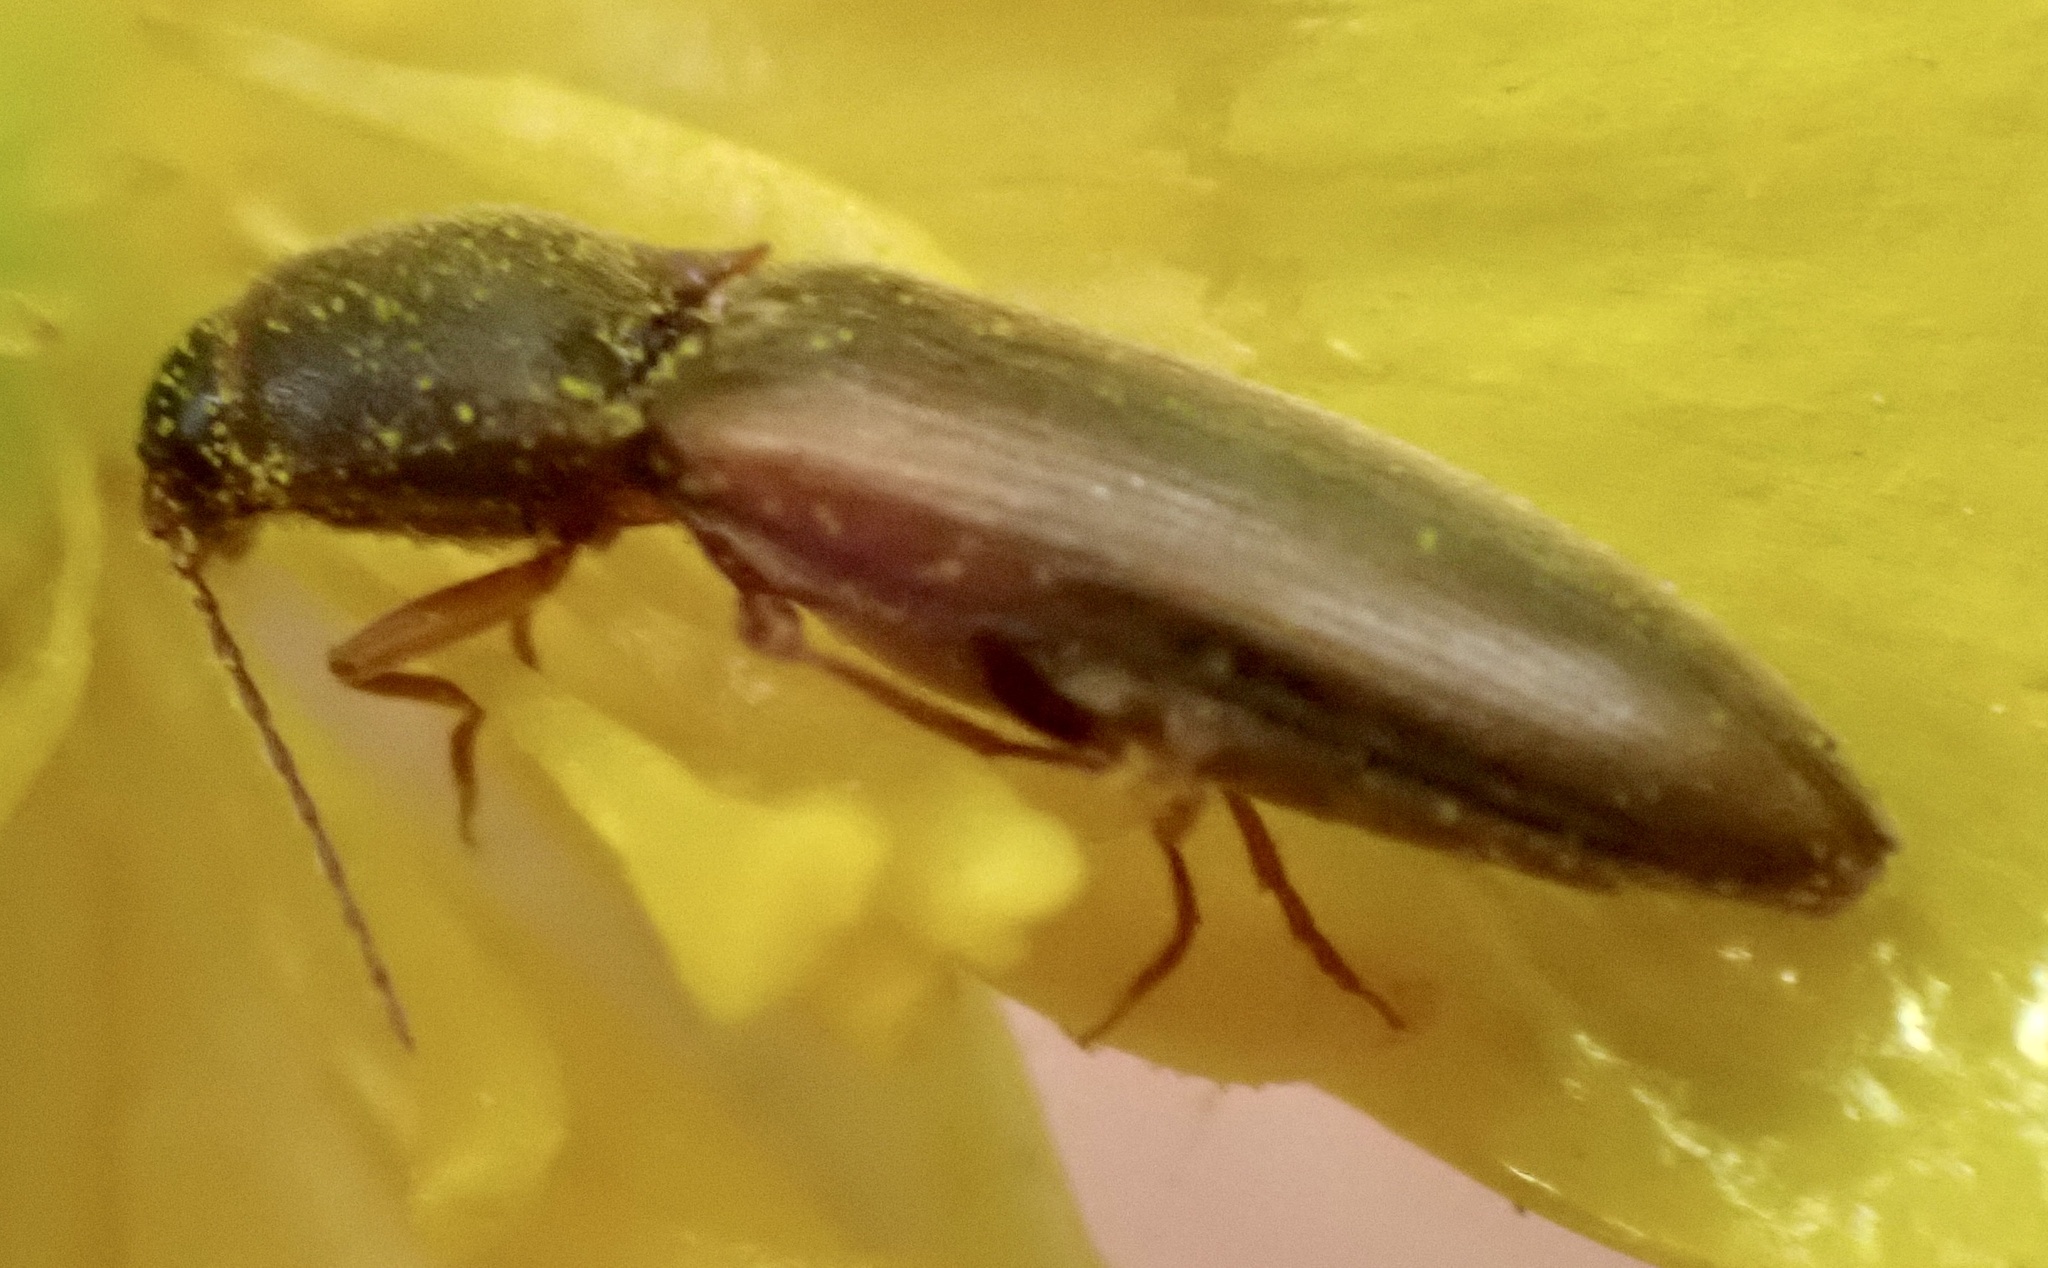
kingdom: Animalia
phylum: Arthropoda
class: Insecta
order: Coleoptera
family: Elateridae
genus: Dalopius
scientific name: Dalopius marginatus
